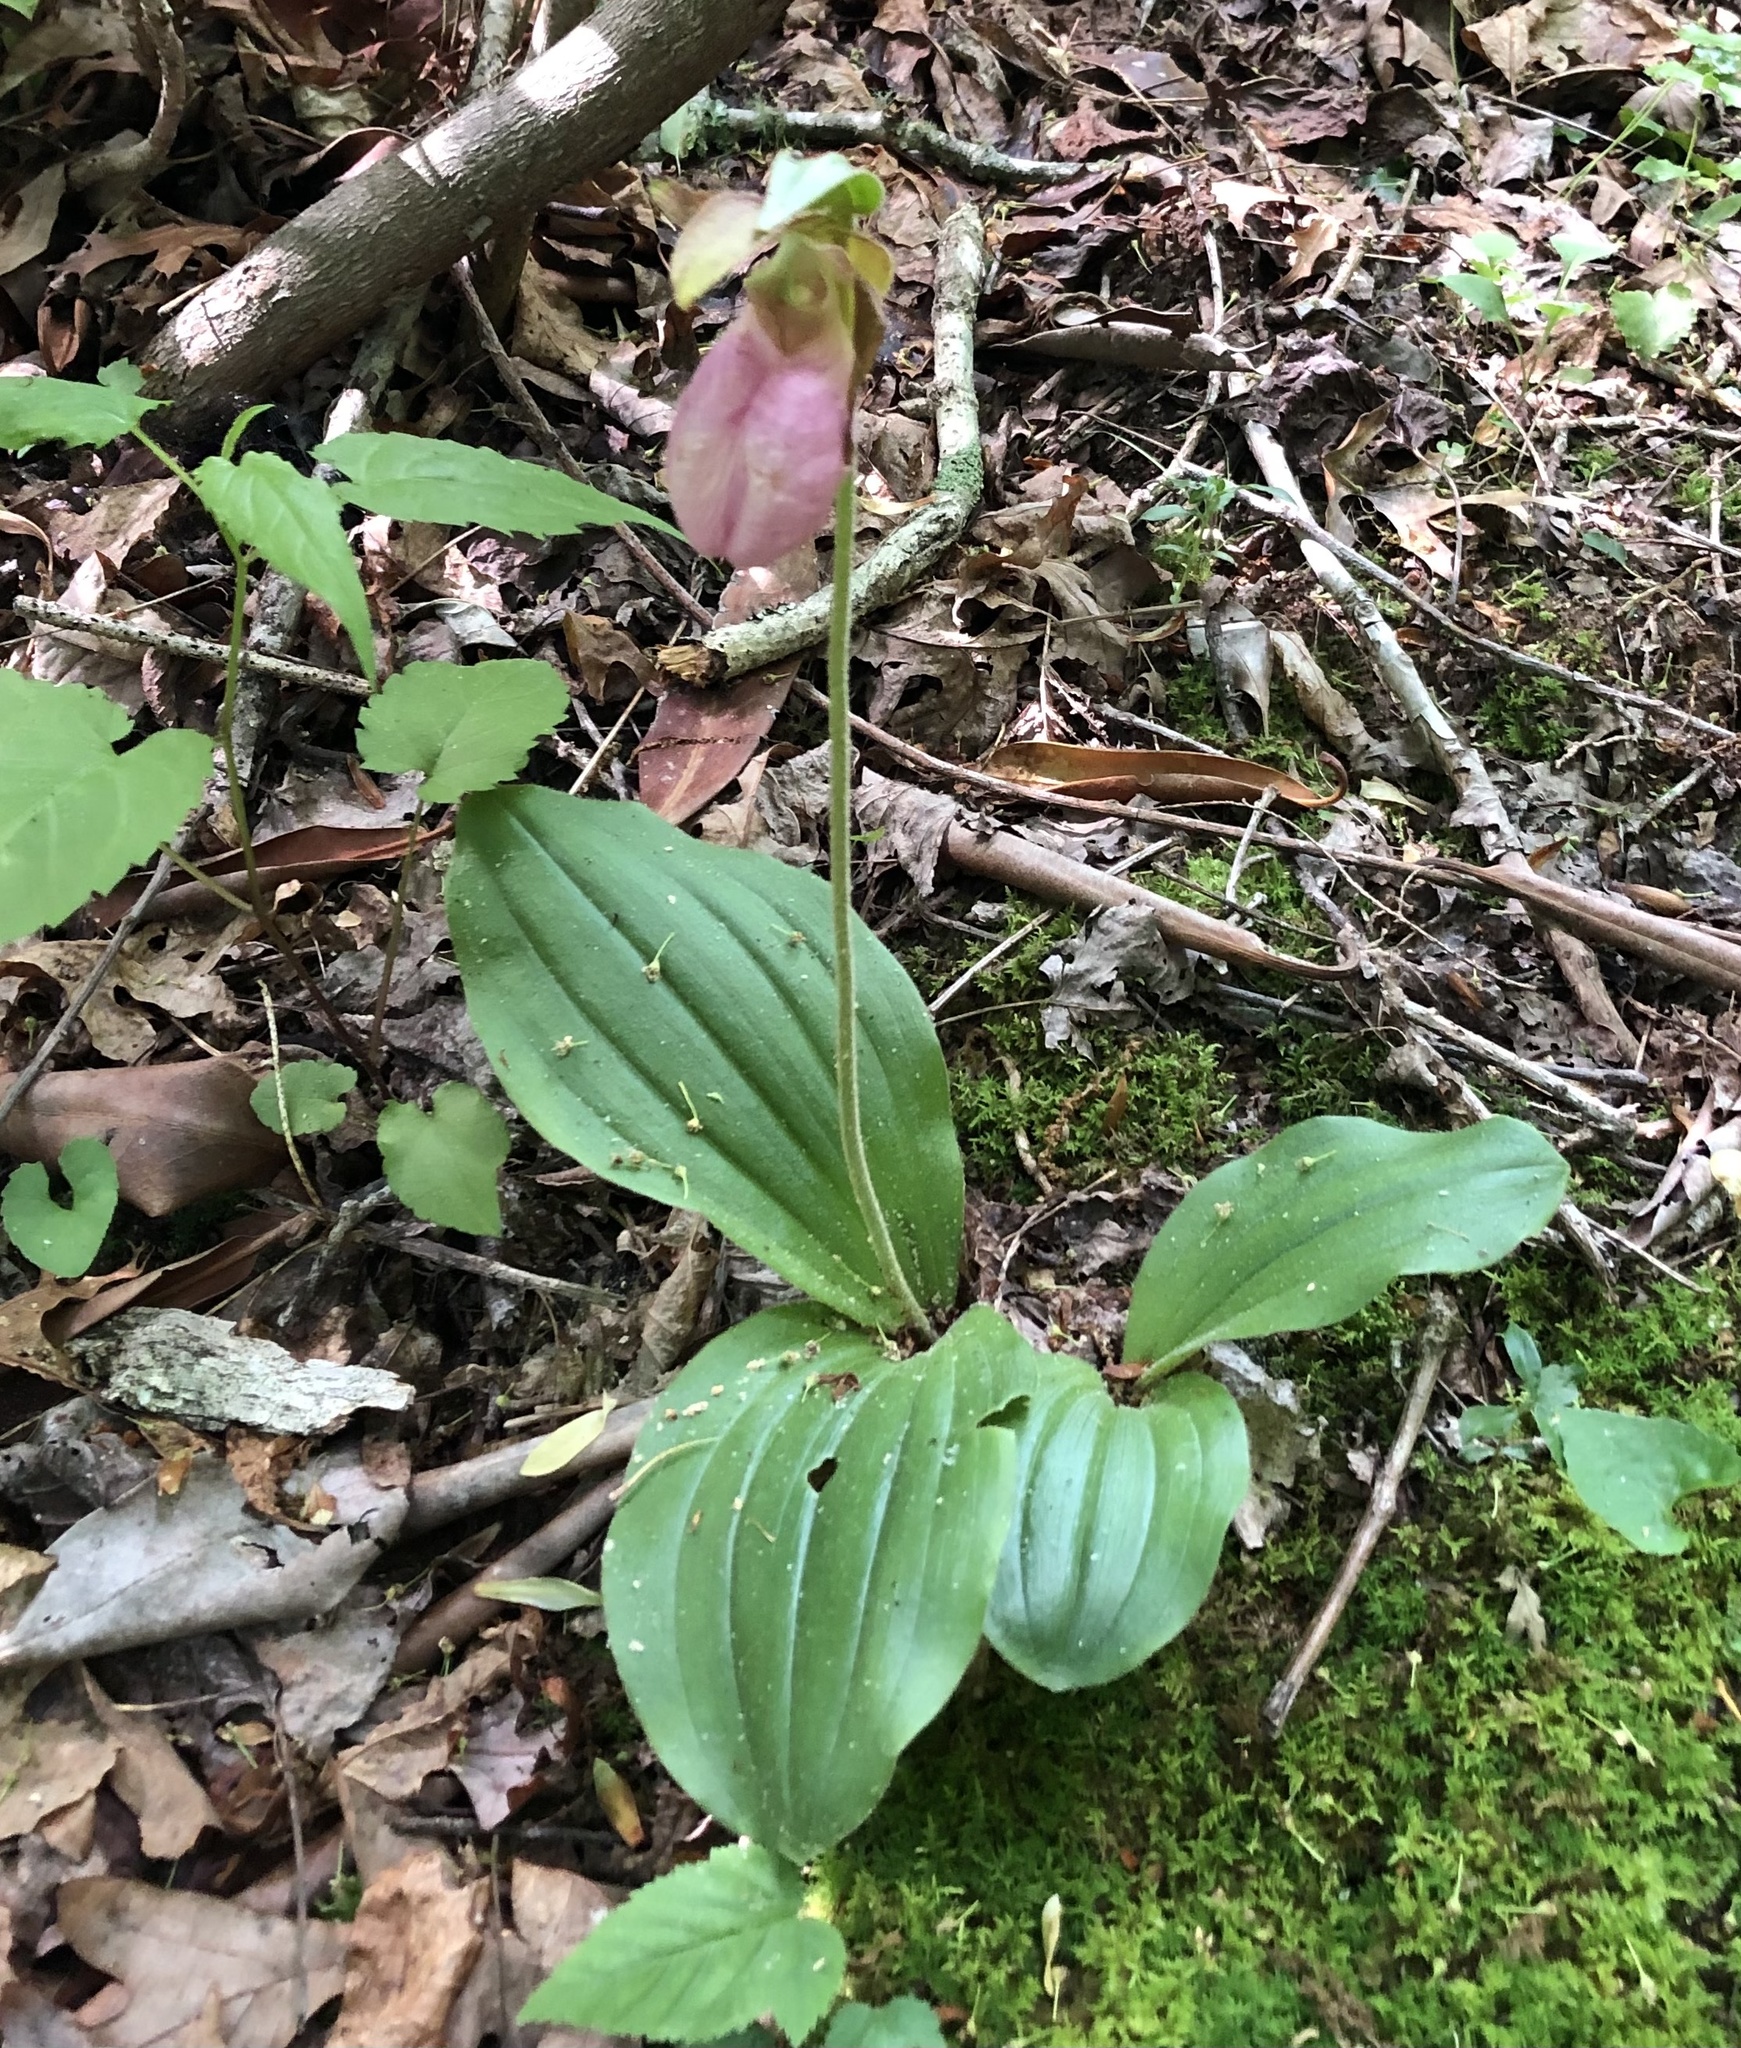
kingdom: Plantae
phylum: Tracheophyta
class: Liliopsida
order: Asparagales
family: Orchidaceae
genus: Cypripedium
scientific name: Cypripedium acaule
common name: Pink lady's-slipper
